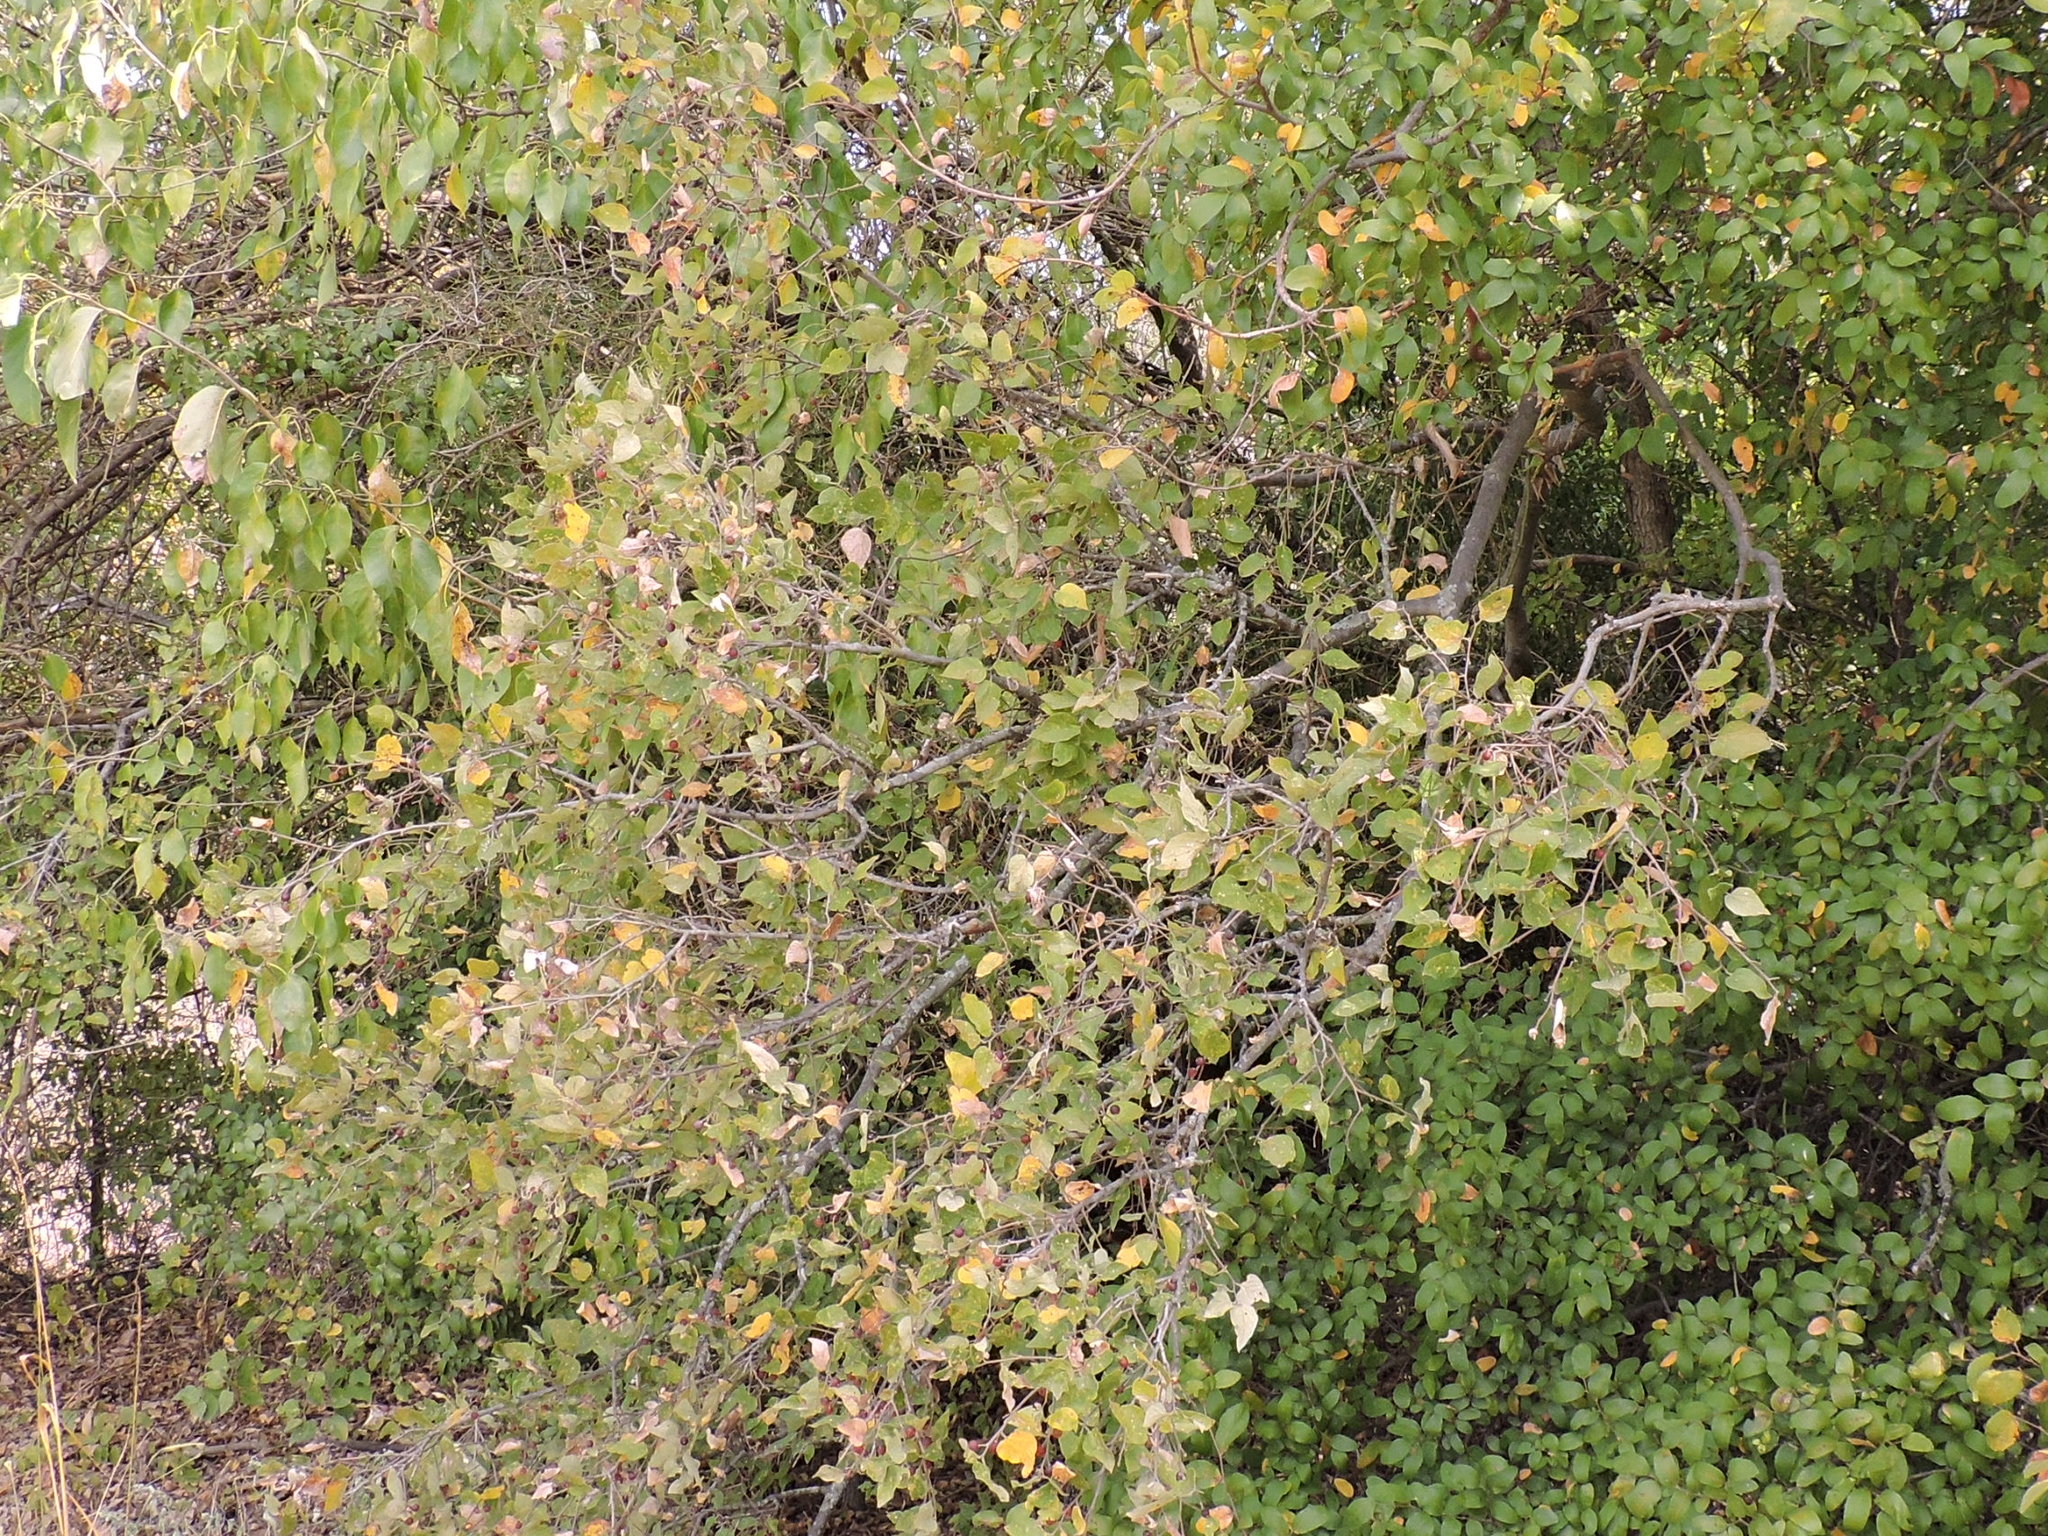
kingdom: Plantae
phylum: Tracheophyta
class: Magnoliopsida
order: Rosales
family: Cannabaceae
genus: Celtis
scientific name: Celtis laevigata
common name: Sugarberry
